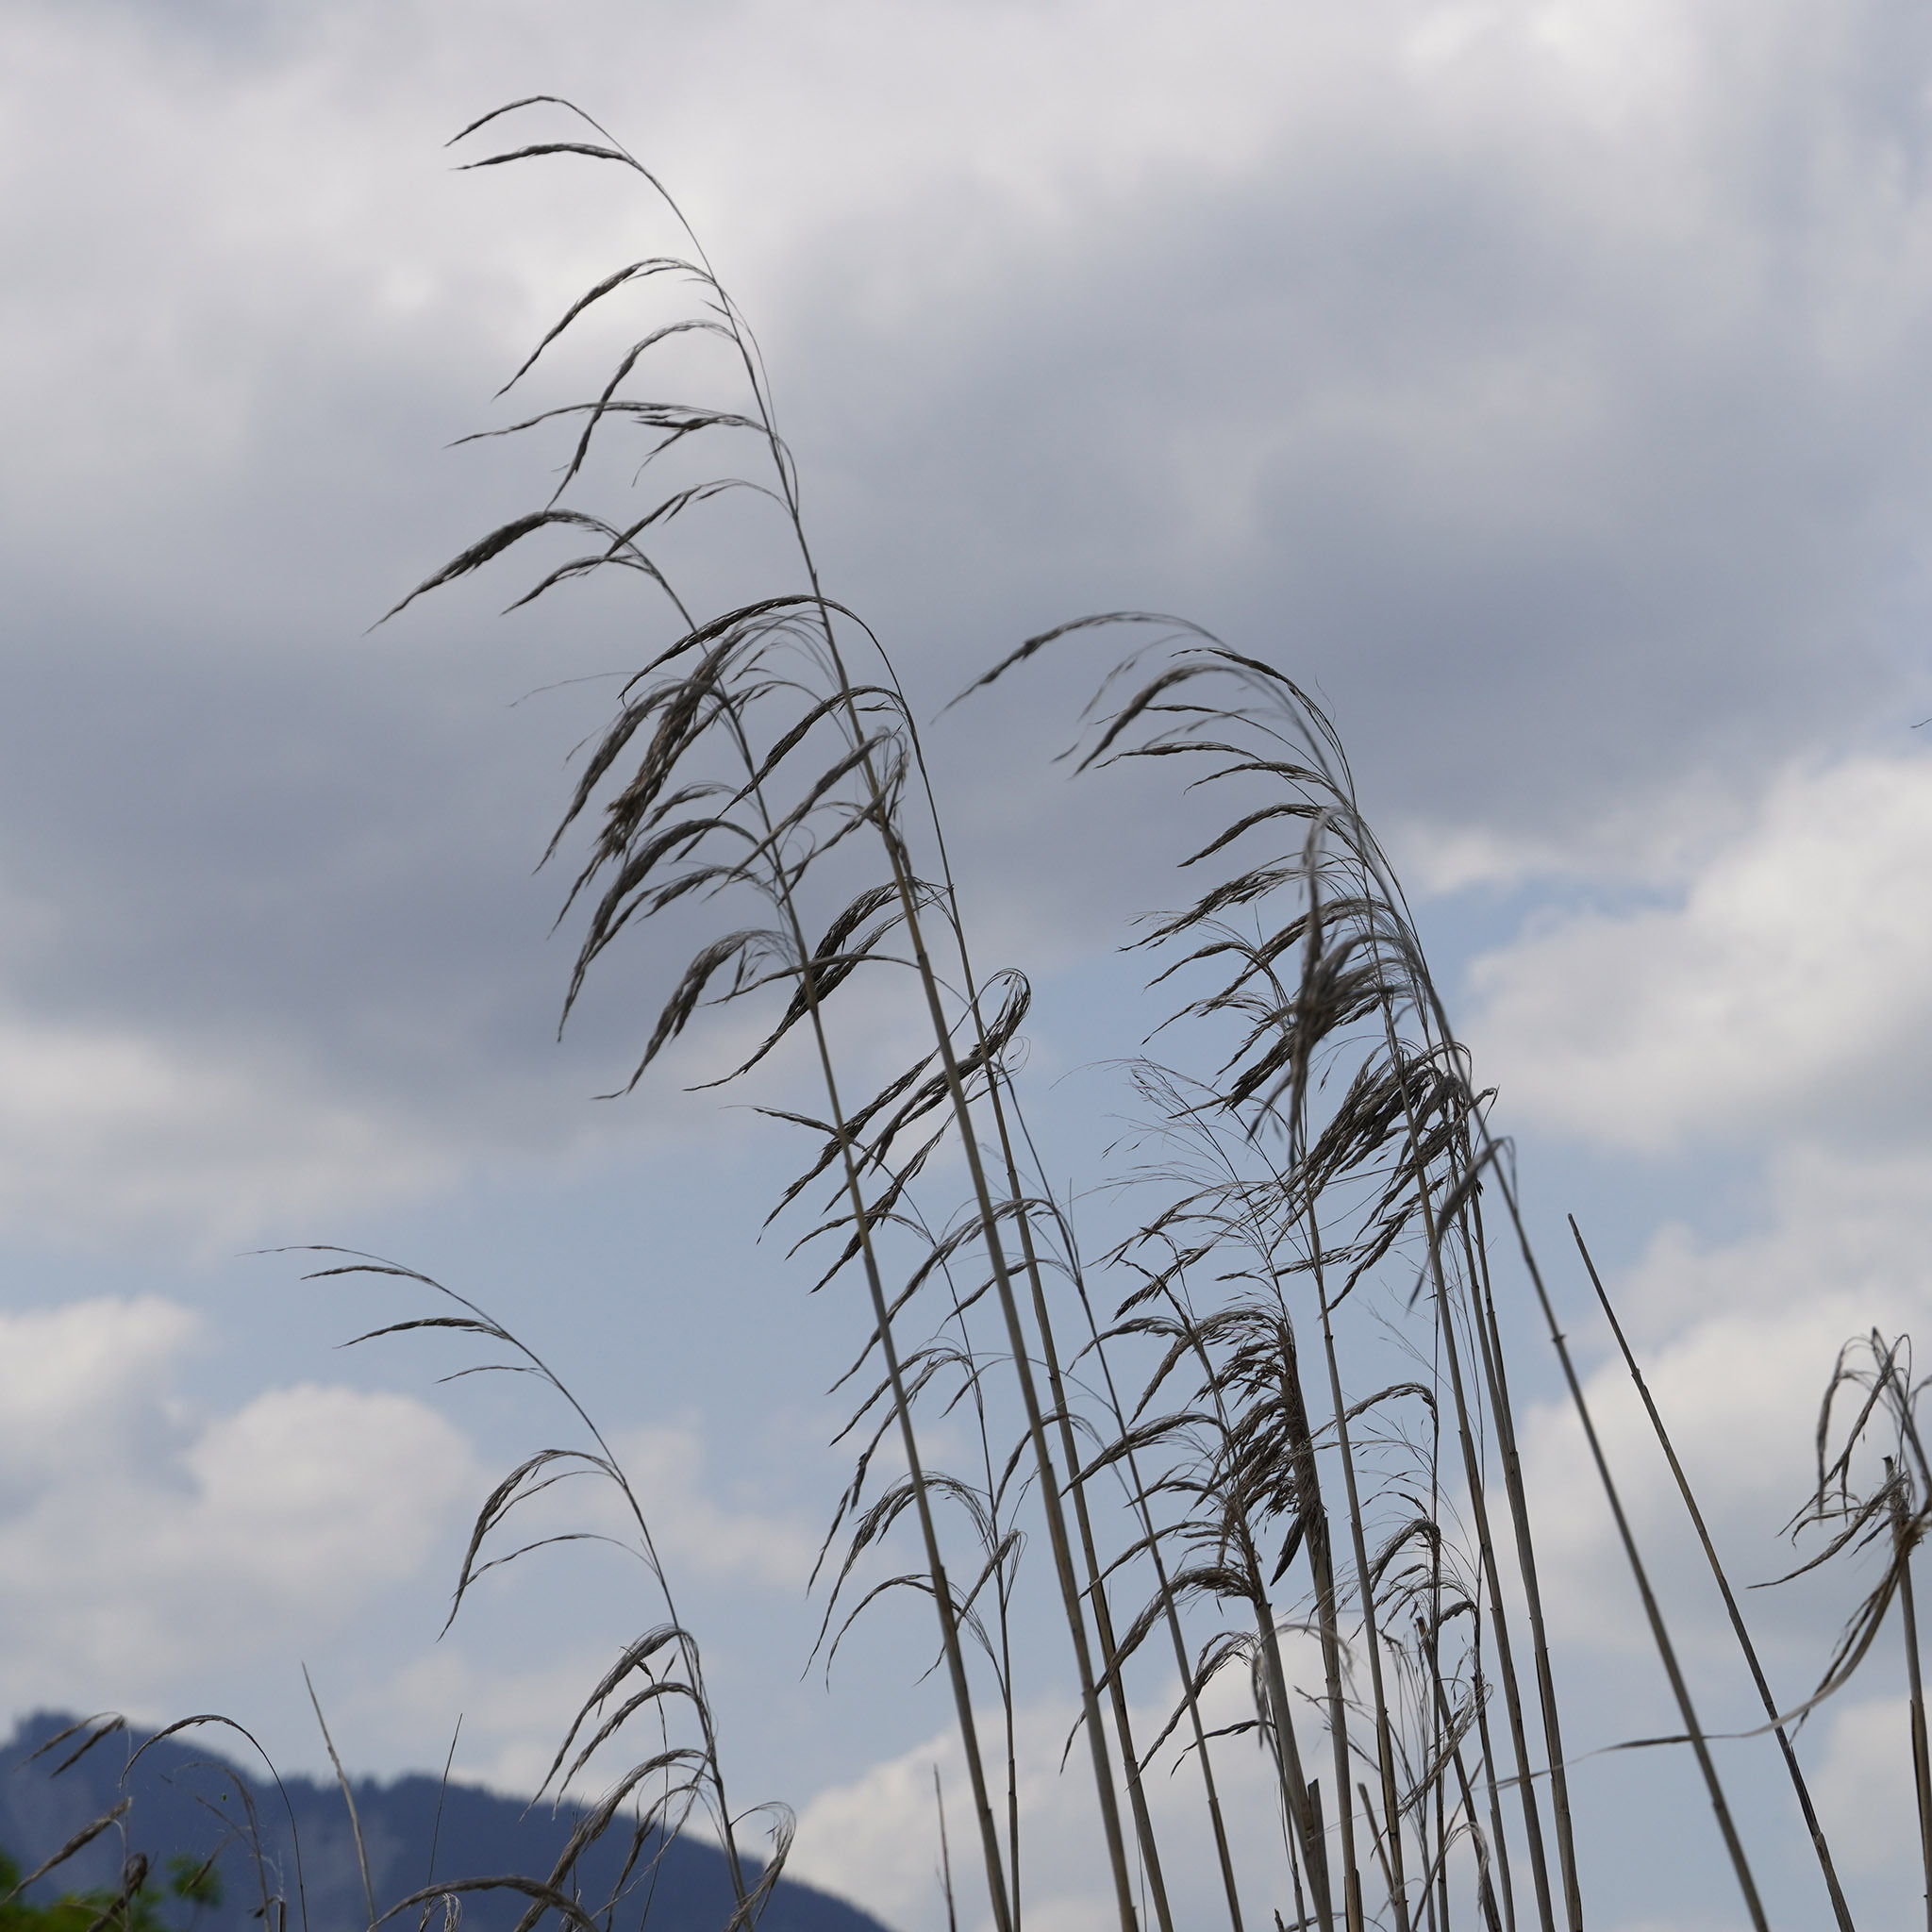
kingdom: Plantae
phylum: Tracheophyta
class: Liliopsida
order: Poales
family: Poaceae
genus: Phragmites
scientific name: Phragmites australis
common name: Common reed
